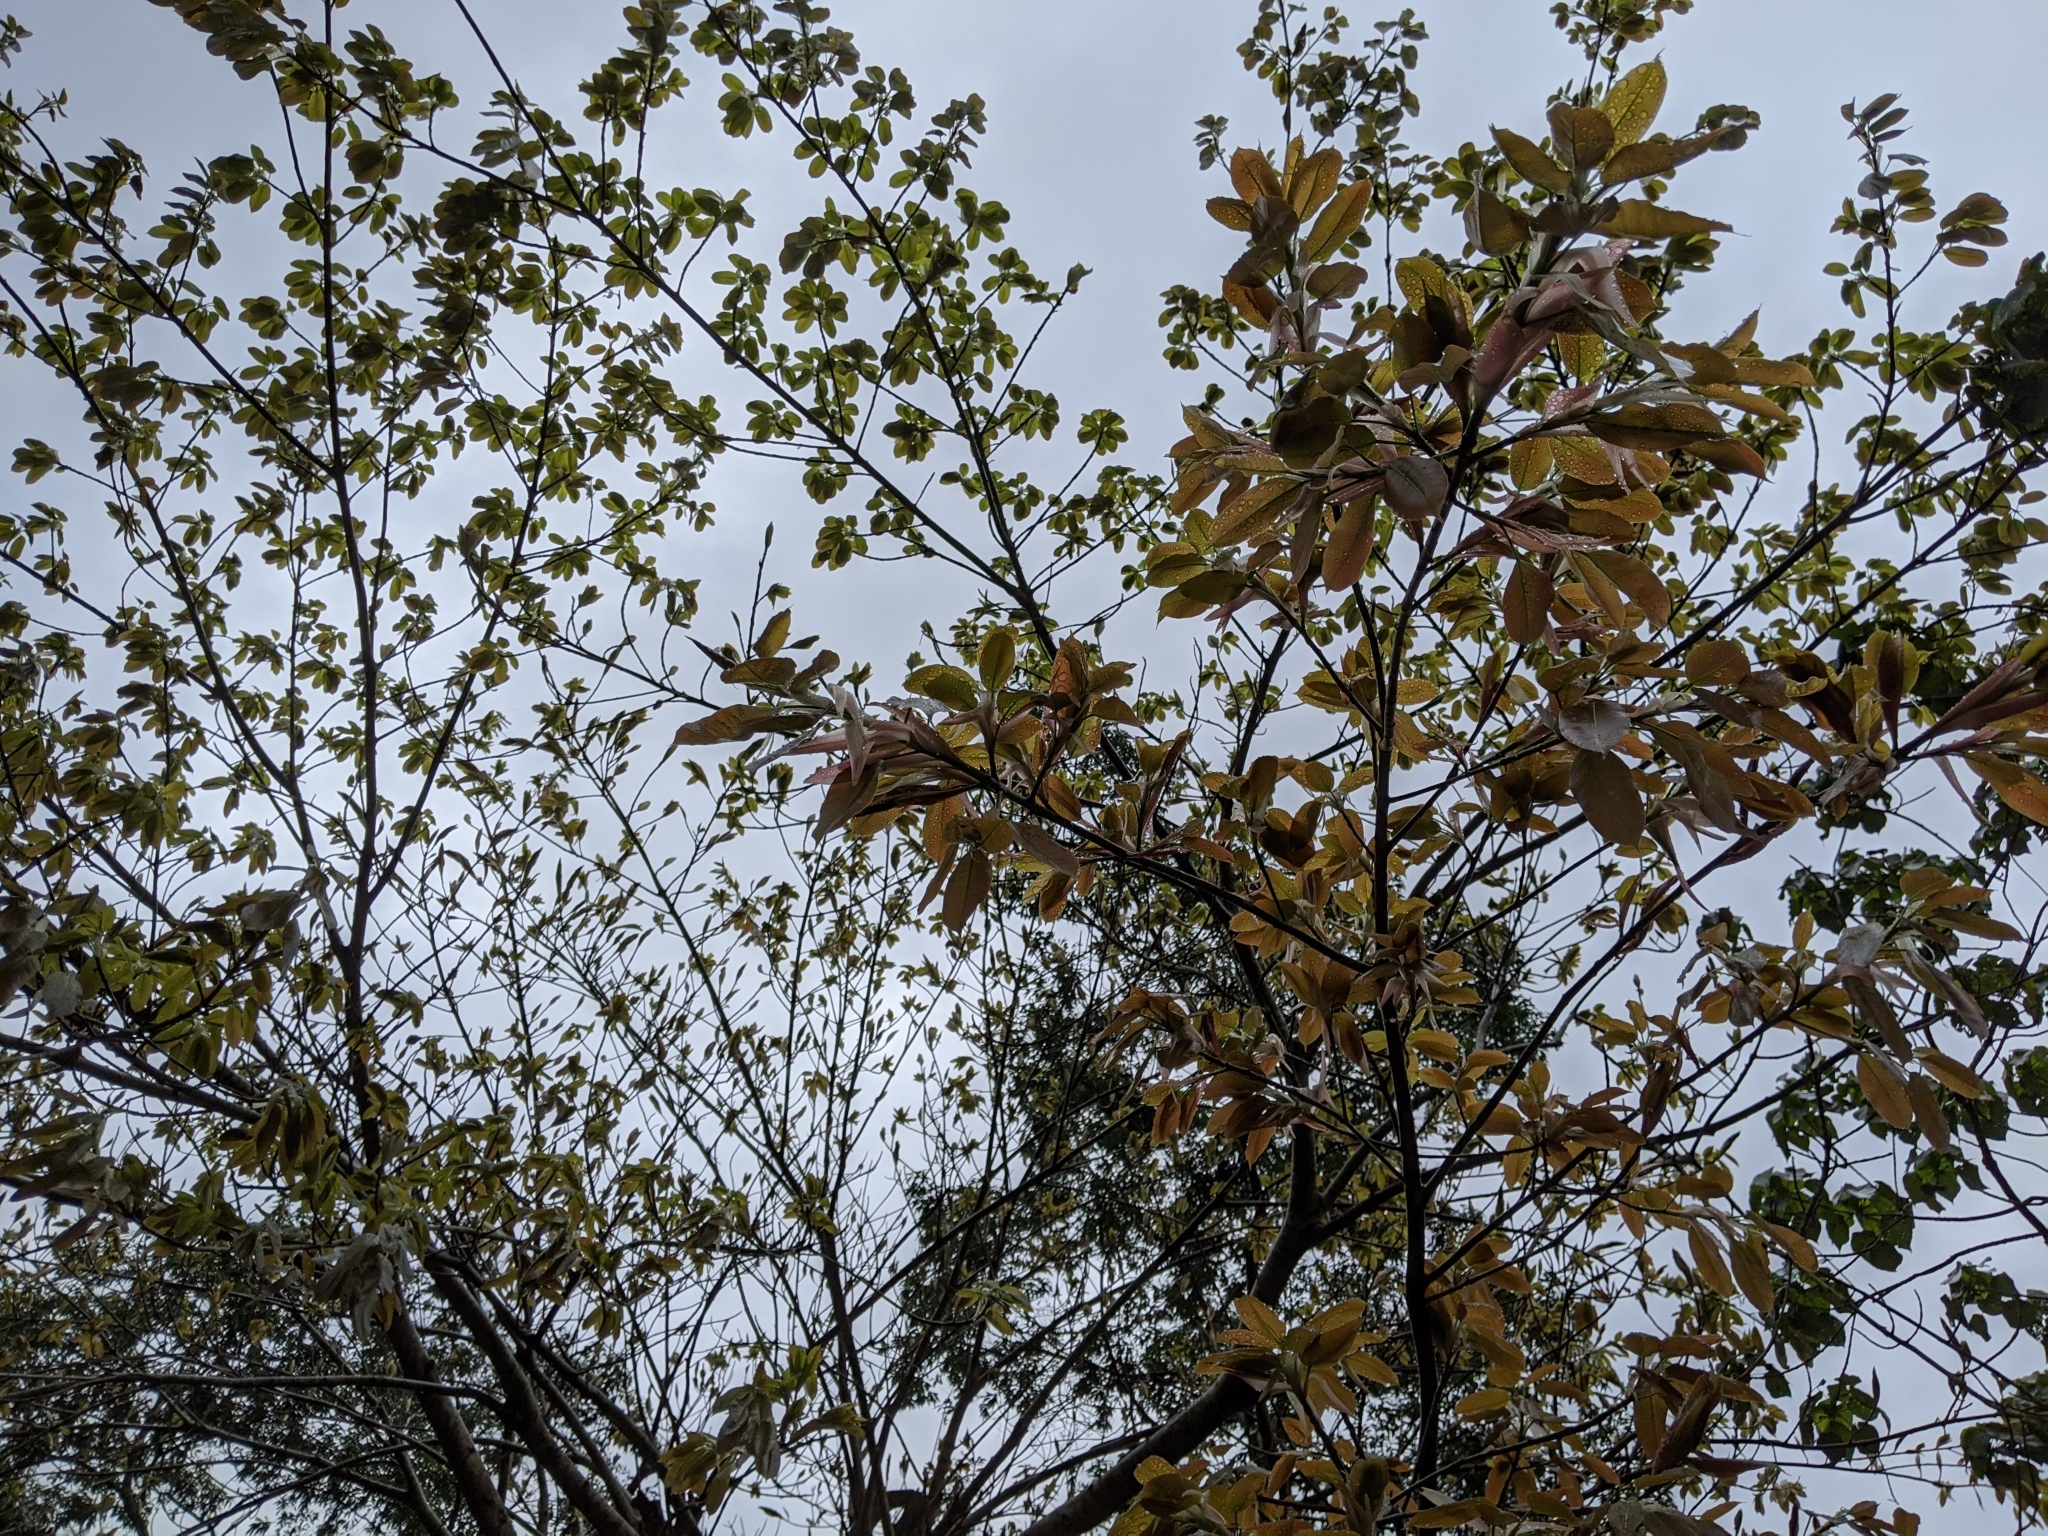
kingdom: Plantae
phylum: Tracheophyta
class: Magnoliopsida
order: Rosales
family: Moraceae
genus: Ficus
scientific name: Ficus subpisocarpa
